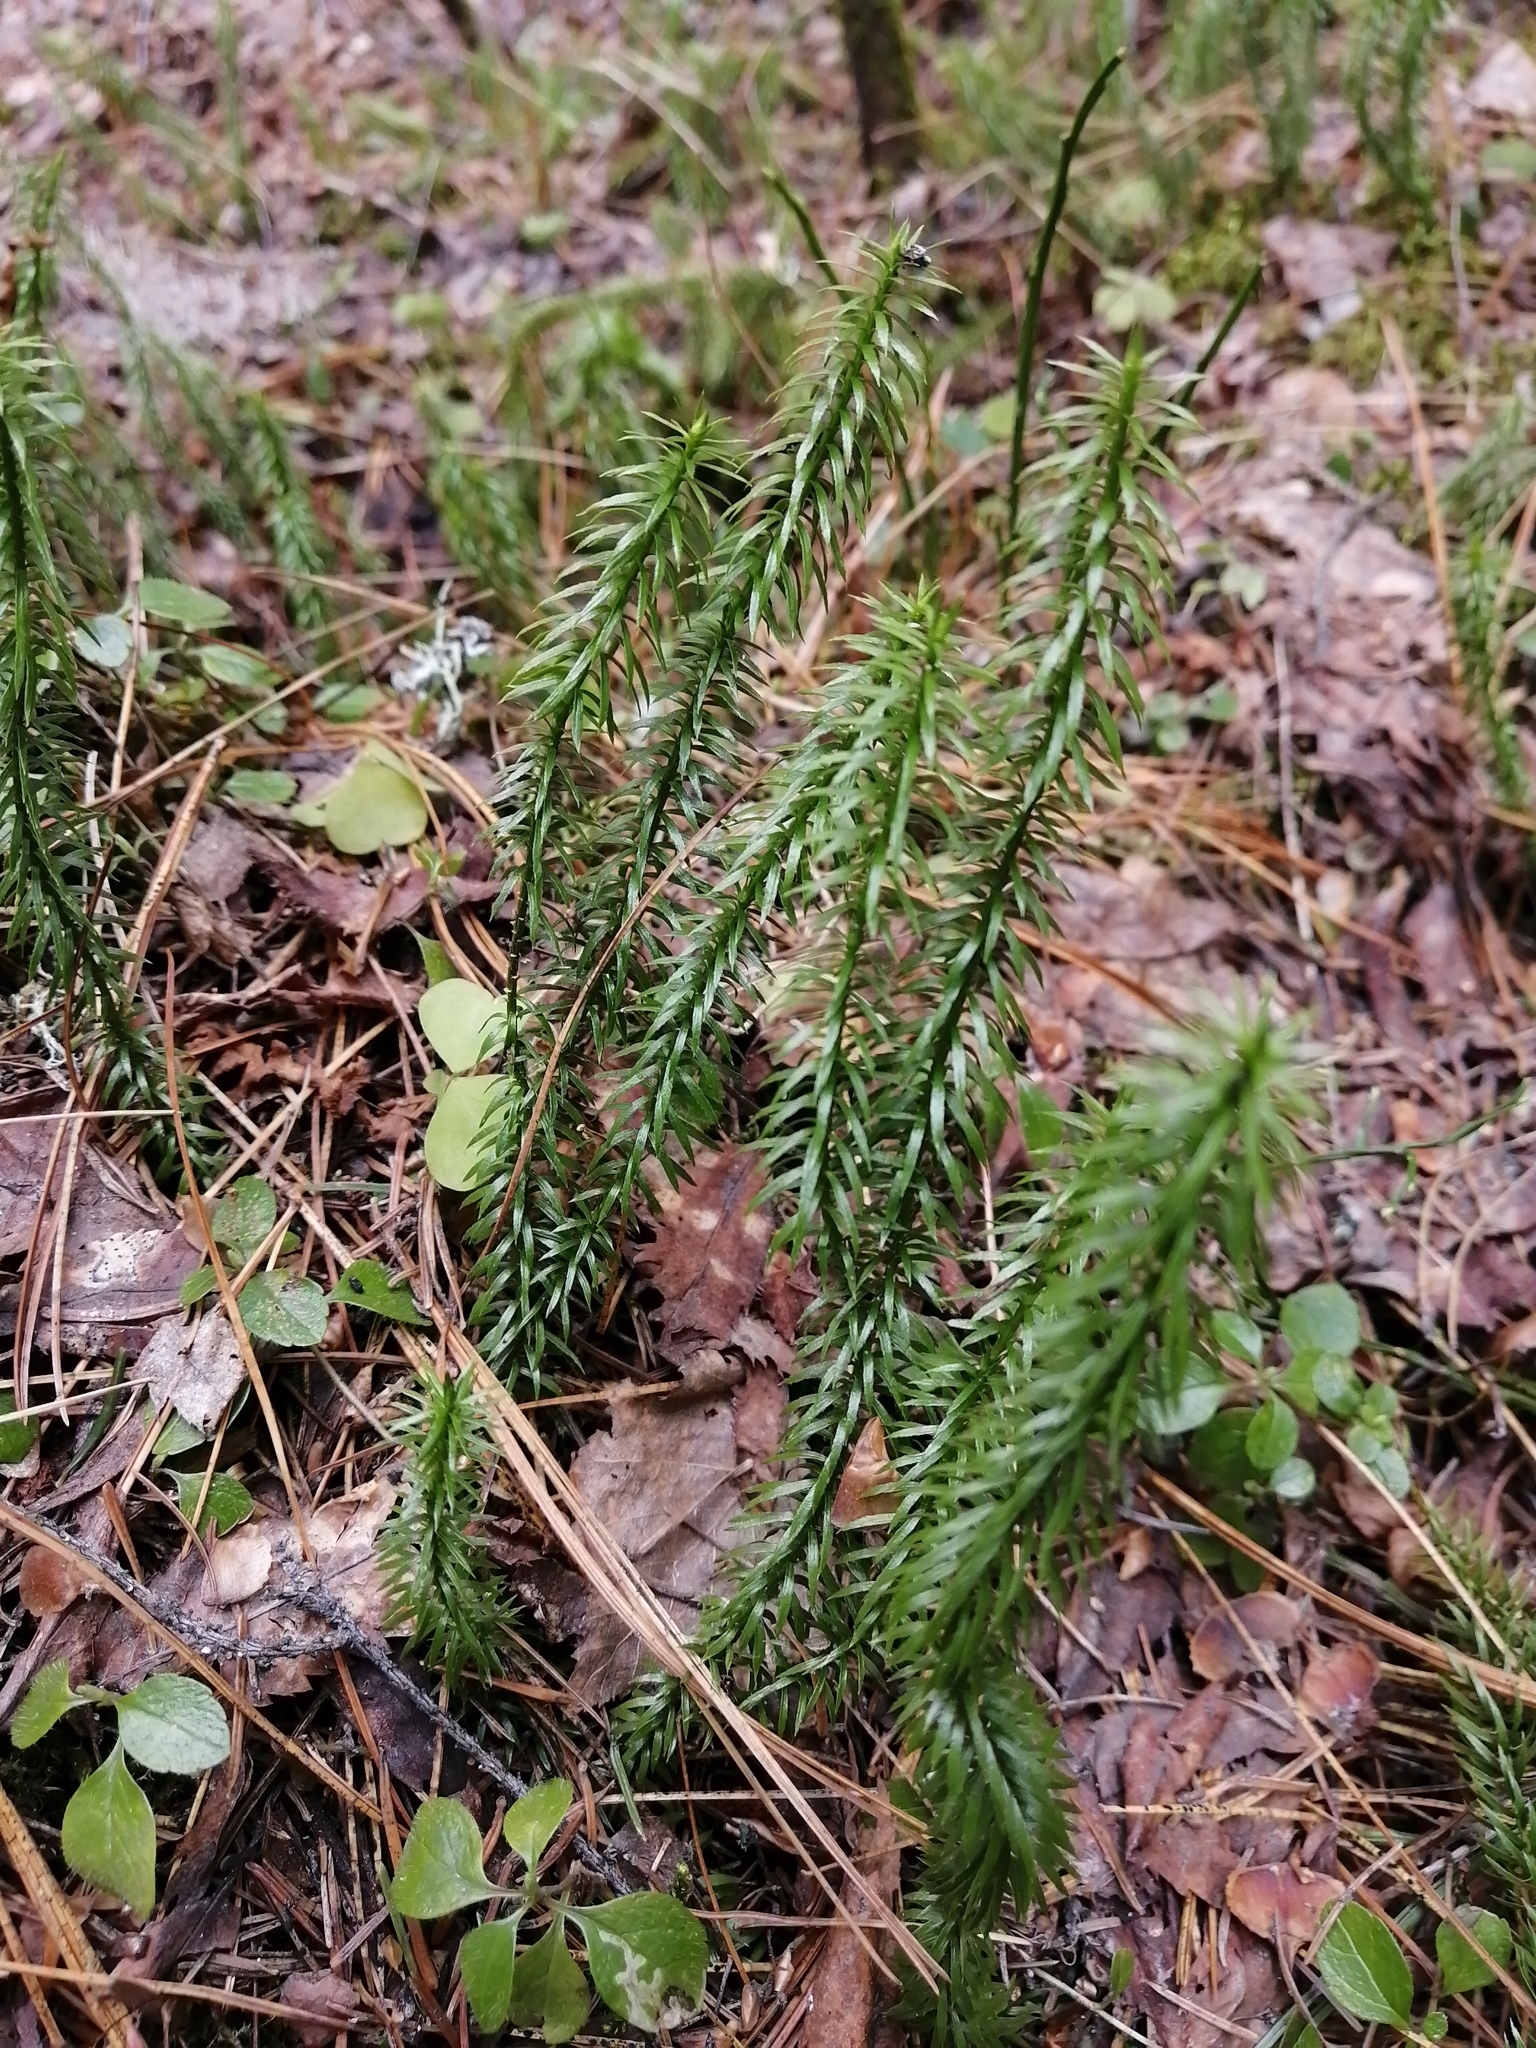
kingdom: Plantae
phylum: Tracheophyta
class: Lycopodiopsida
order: Lycopodiales
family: Lycopodiaceae
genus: Spinulum
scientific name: Spinulum annotinum
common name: Interrupted club-moss
